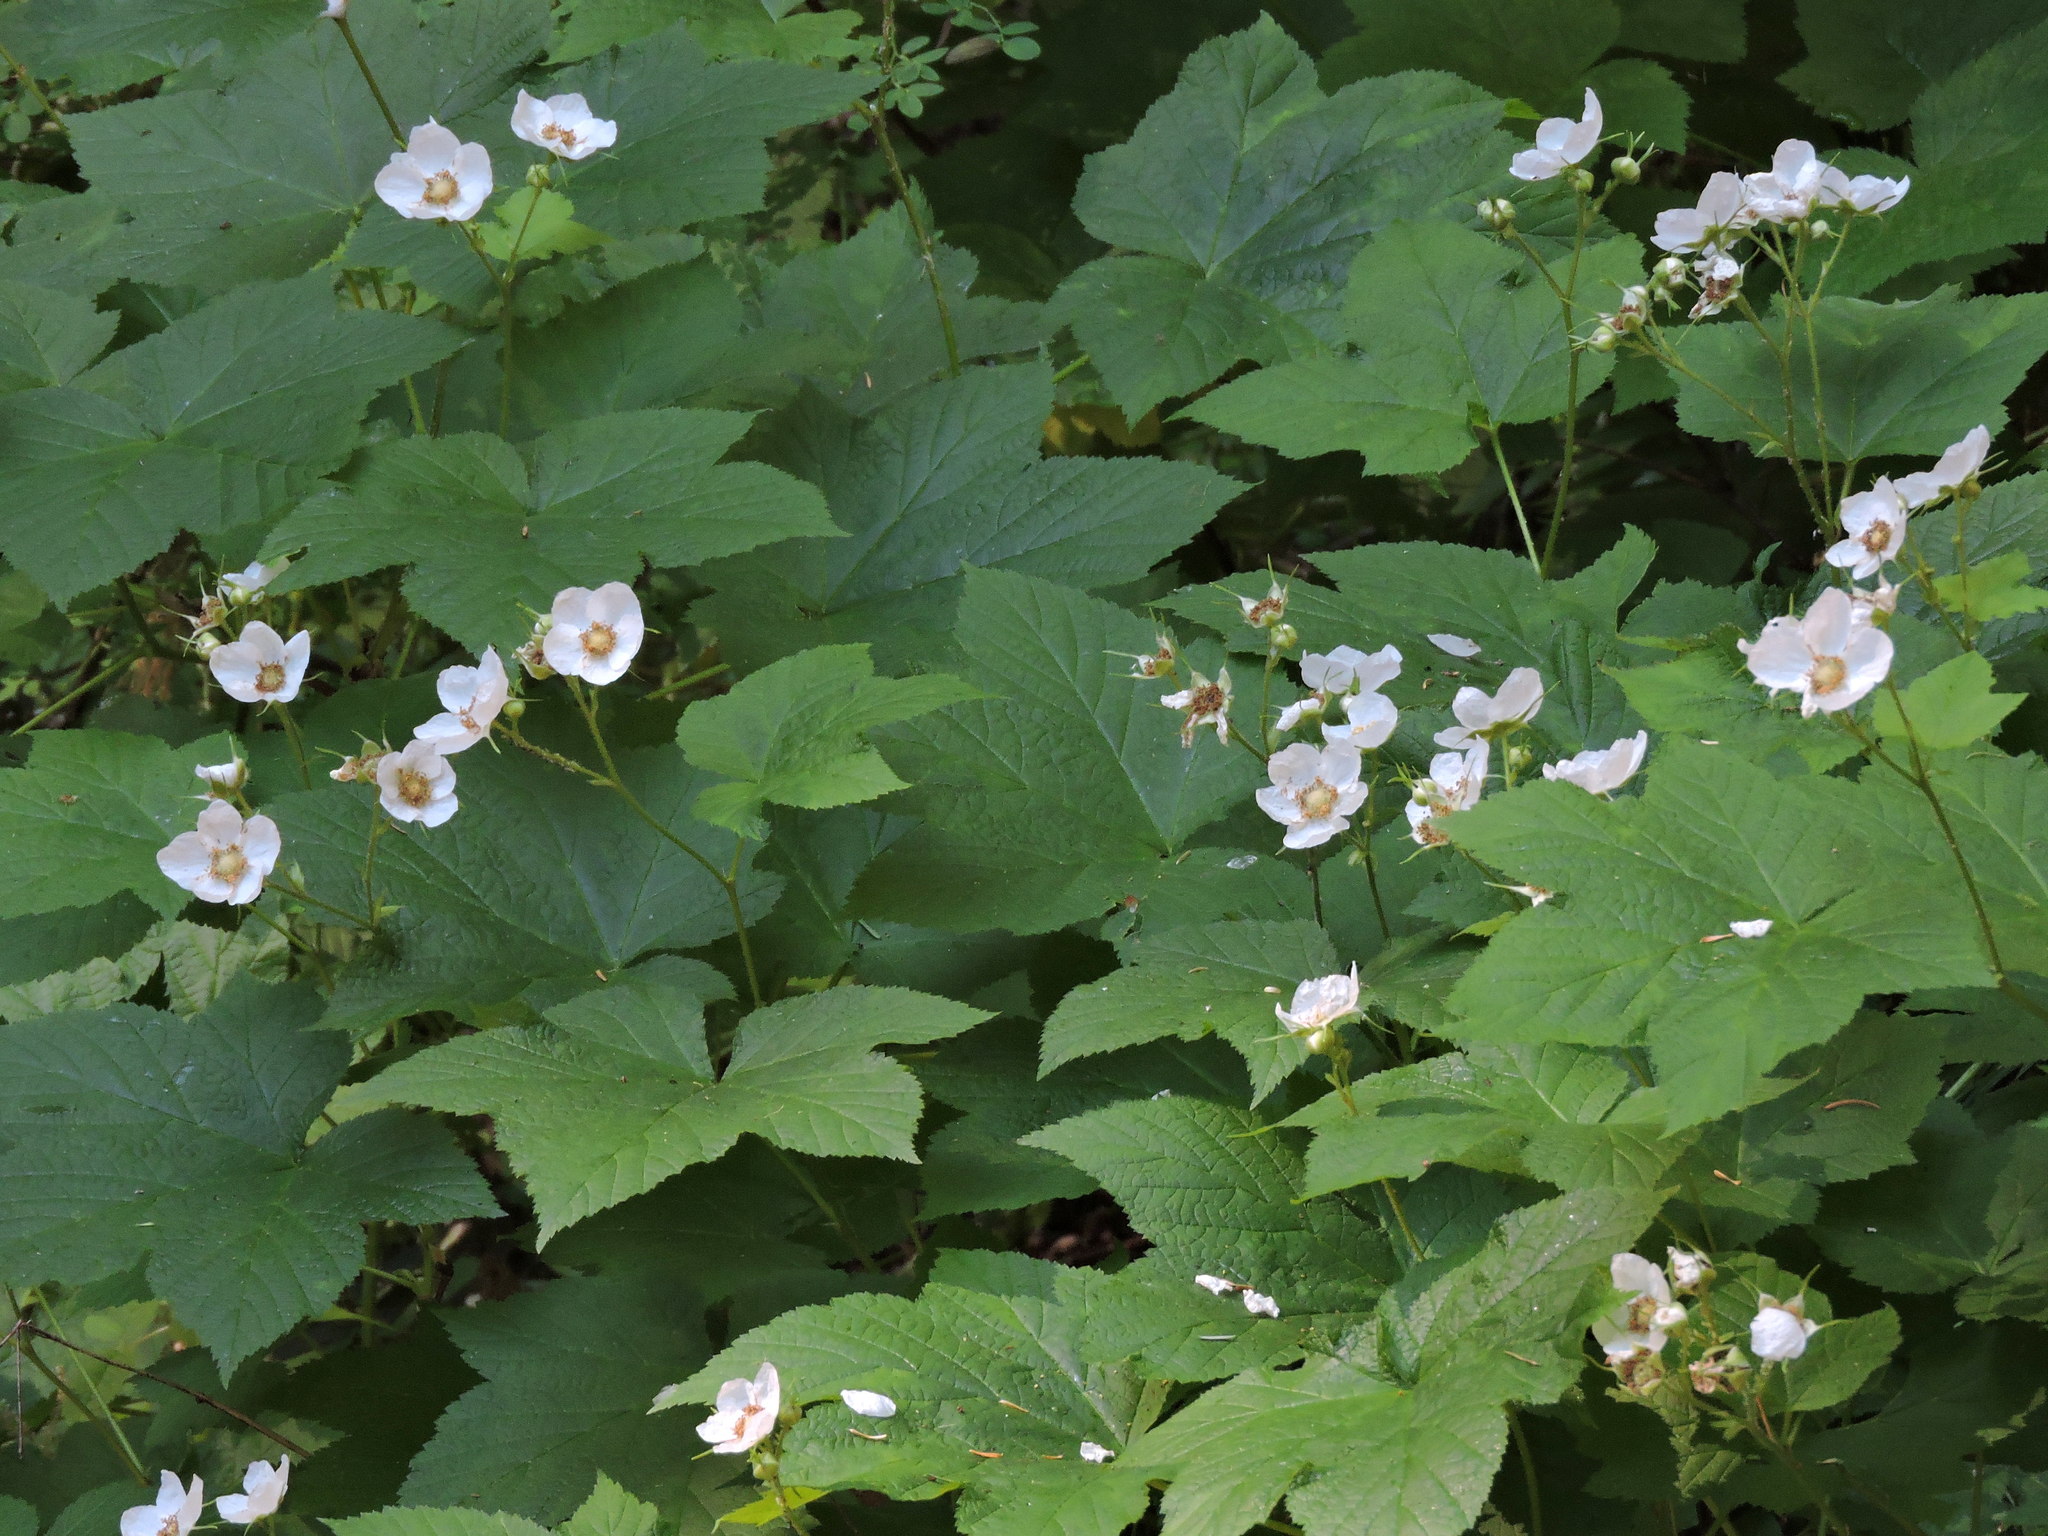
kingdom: Plantae
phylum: Tracheophyta
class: Magnoliopsida
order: Rosales
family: Rosaceae
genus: Rubus
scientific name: Rubus parviflorus
